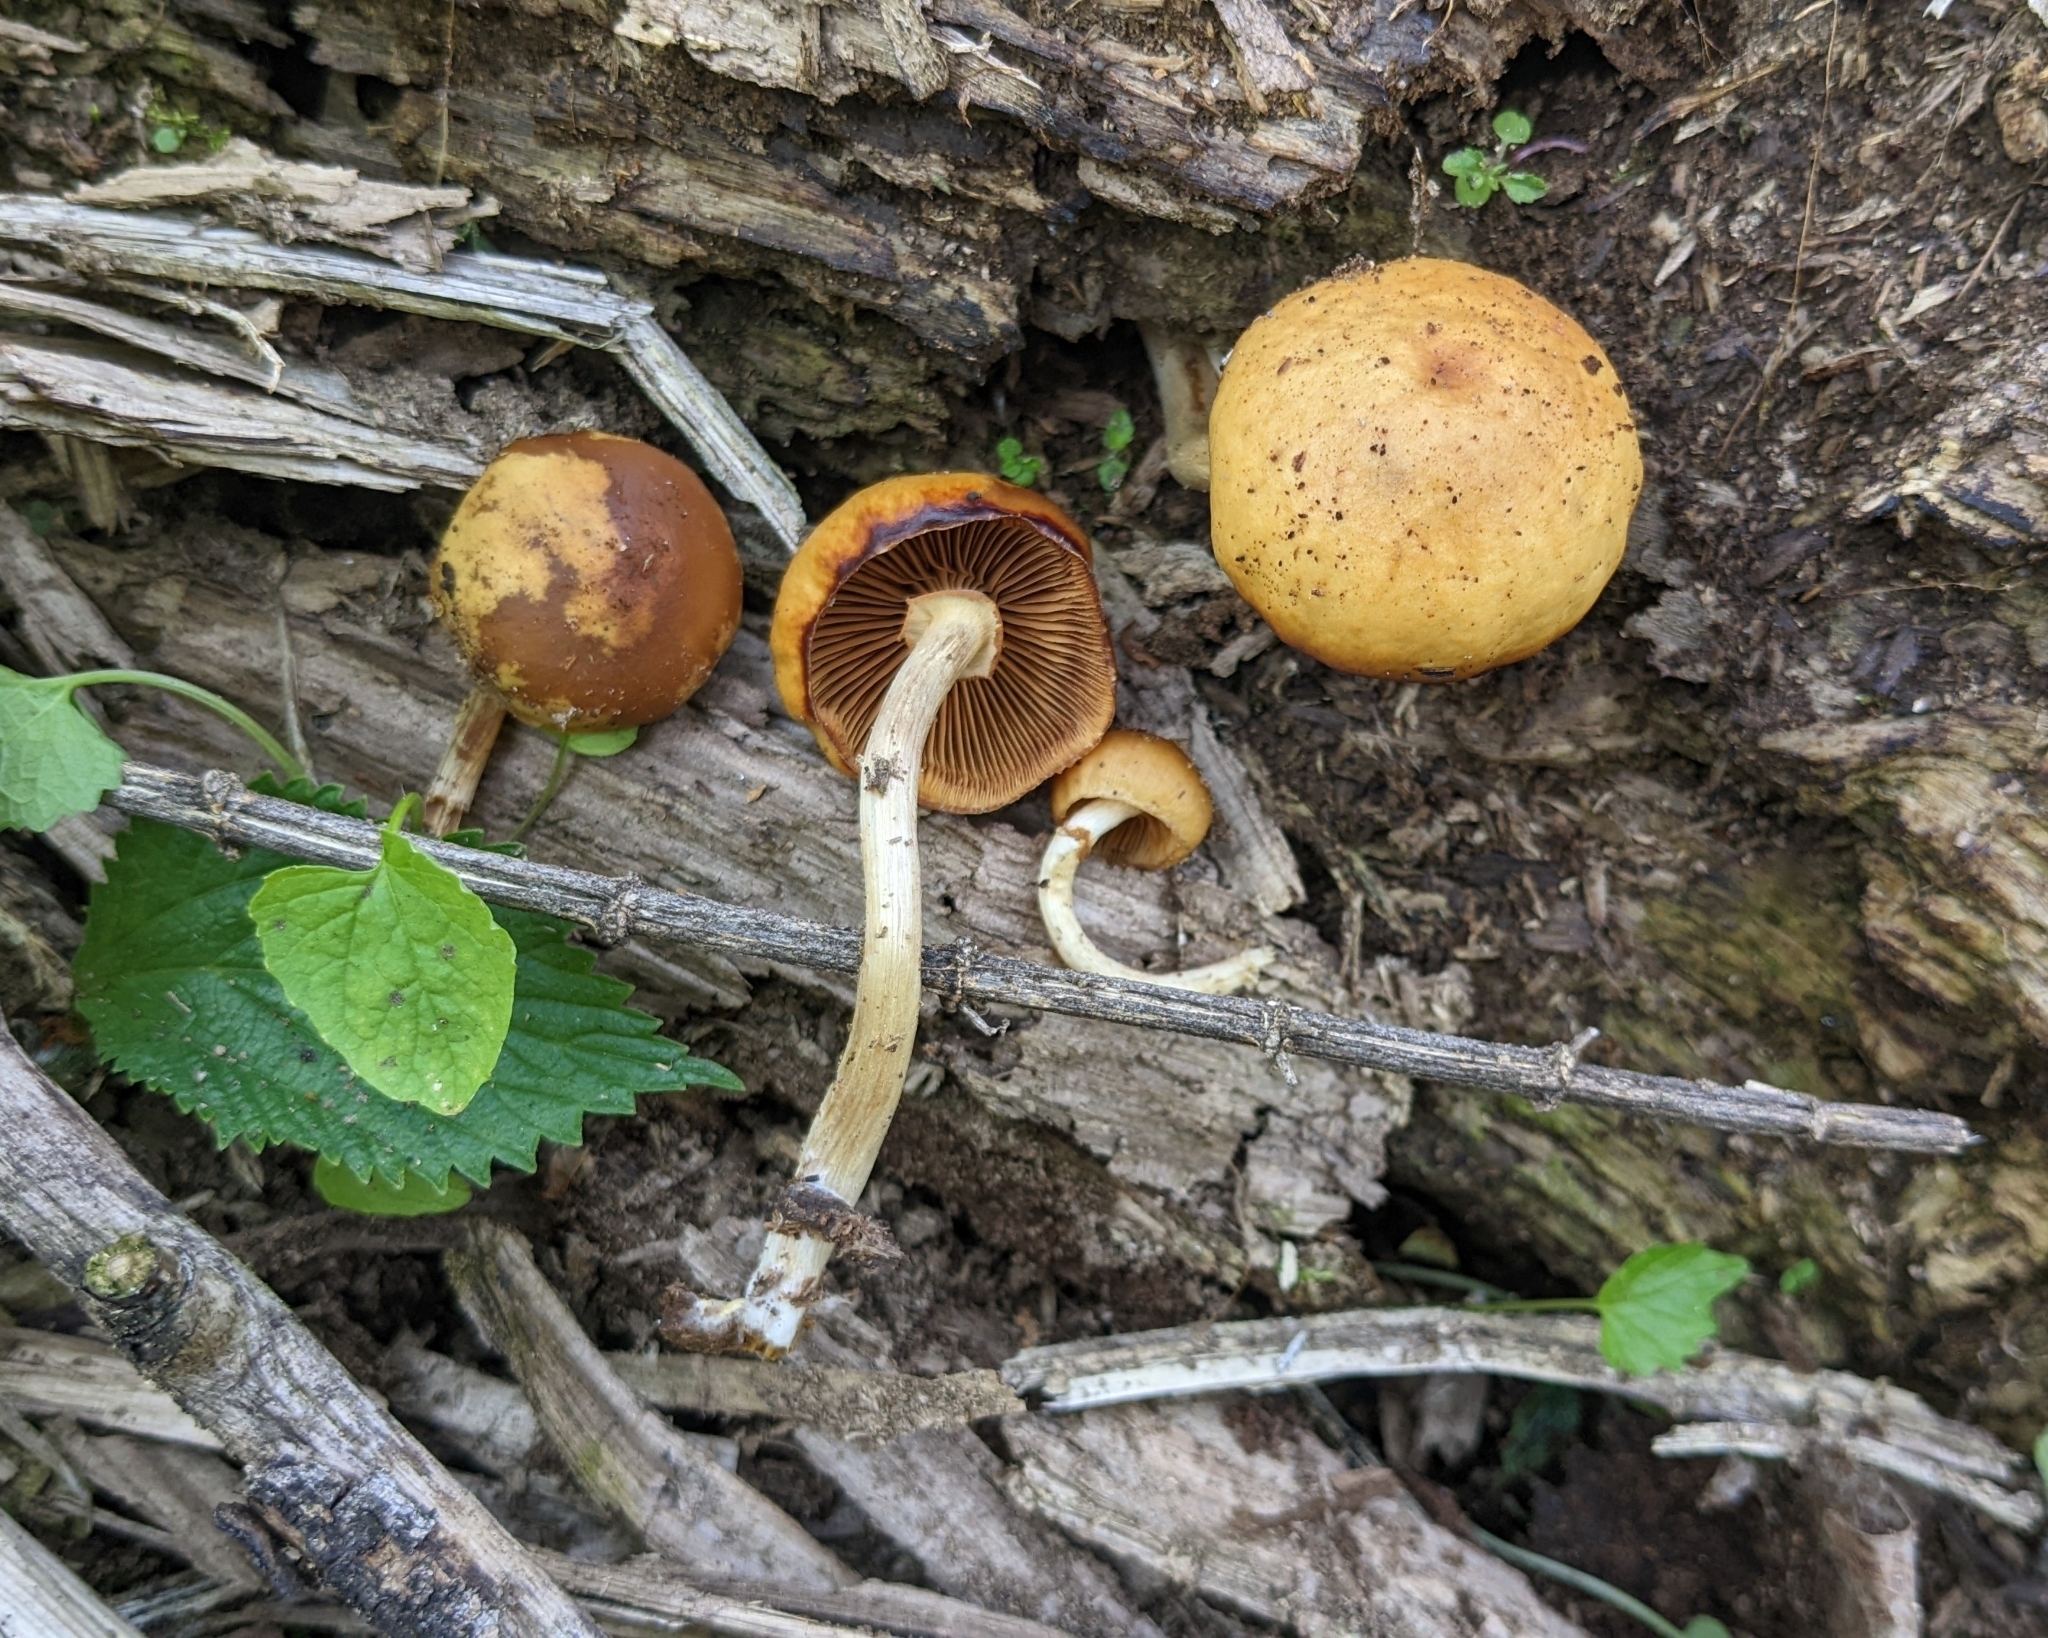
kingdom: Fungi
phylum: Basidiomycota
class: Agaricomycetes
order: Agaricales
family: Hymenogastraceae
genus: Galerina
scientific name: Galerina marginata
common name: Funeral bell
